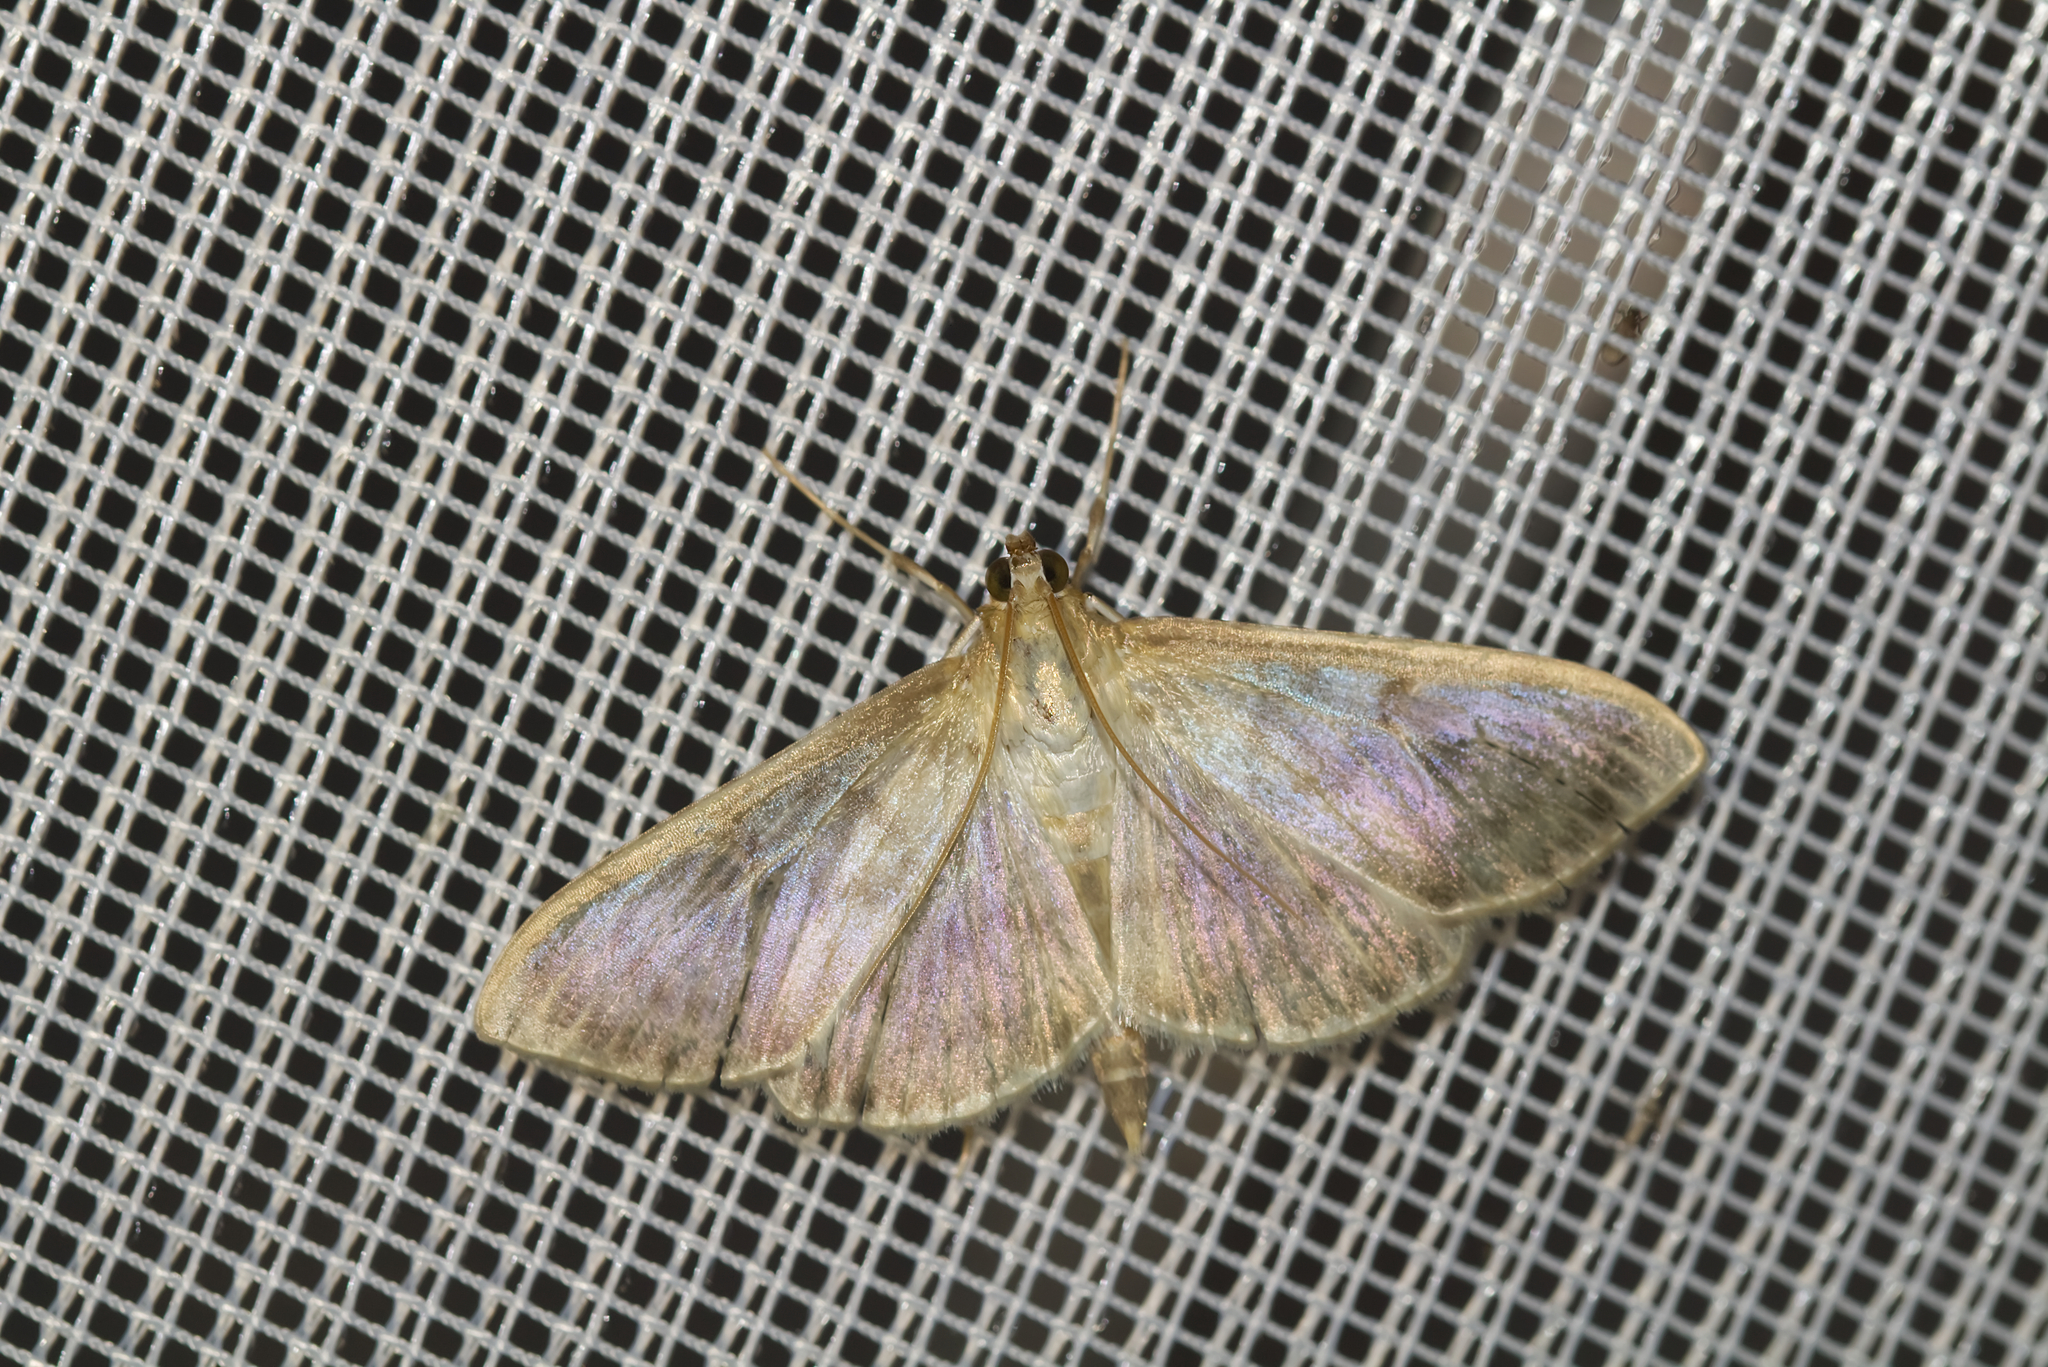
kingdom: Animalia
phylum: Arthropoda
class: Insecta
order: Lepidoptera
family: Crambidae
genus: Patania
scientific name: Patania ruralis
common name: Mother of pearl
